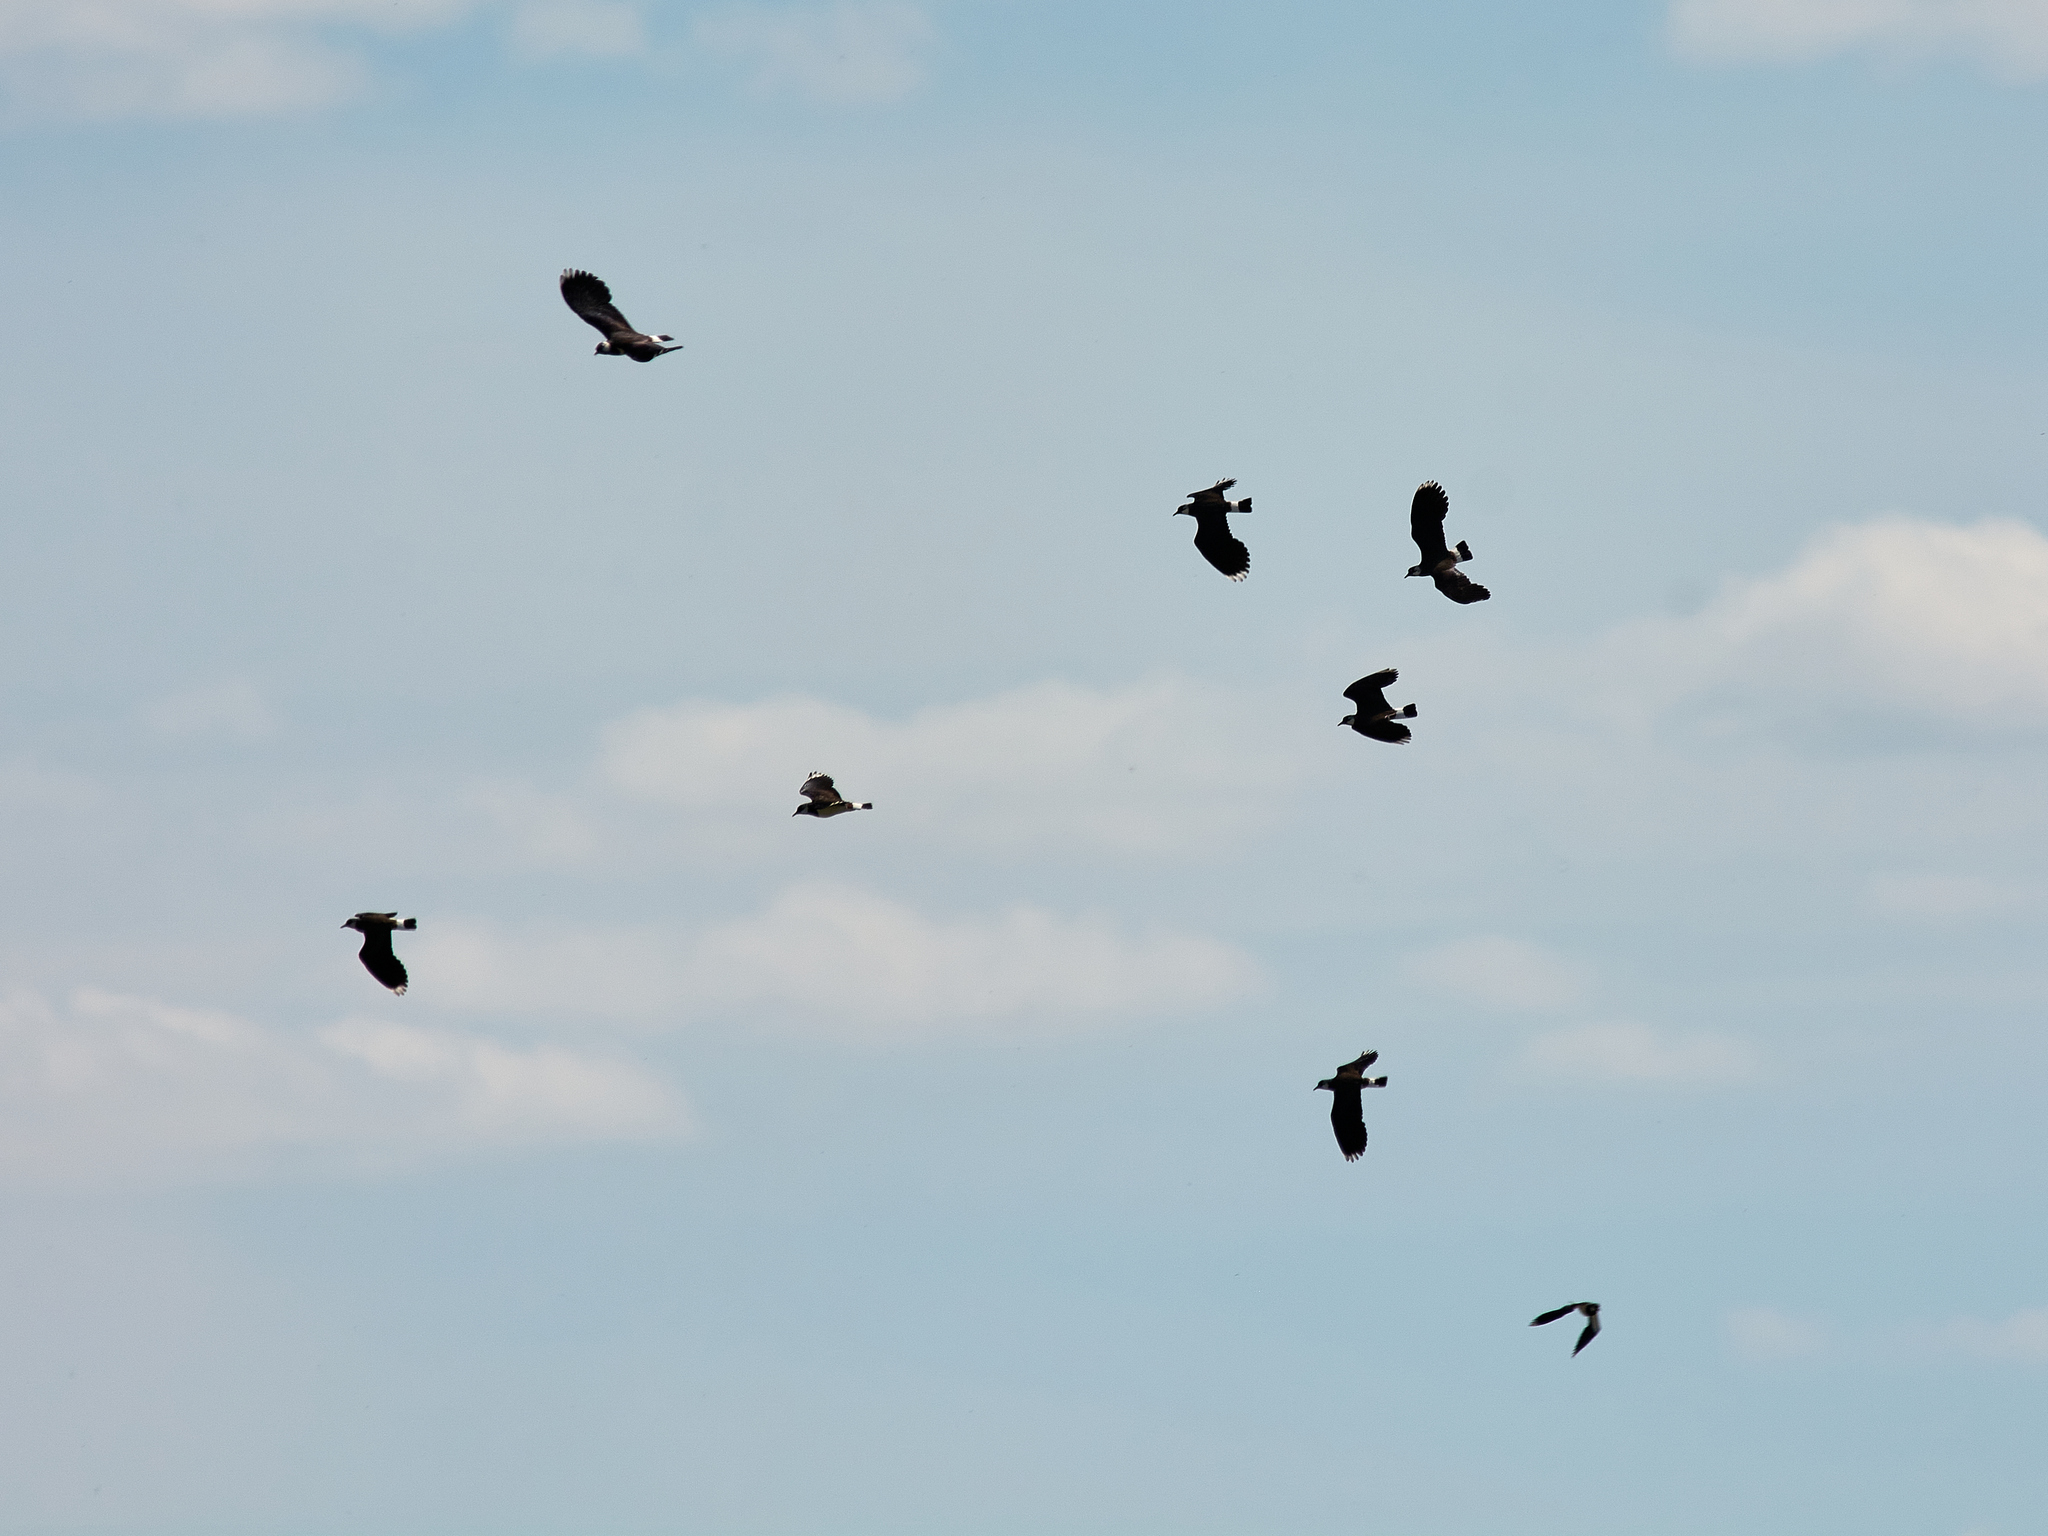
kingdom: Animalia
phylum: Chordata
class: Aves
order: Charadriiformes
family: Charadriidae
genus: Vanellus
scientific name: Vanellus vanellus
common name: Northern lapwing
